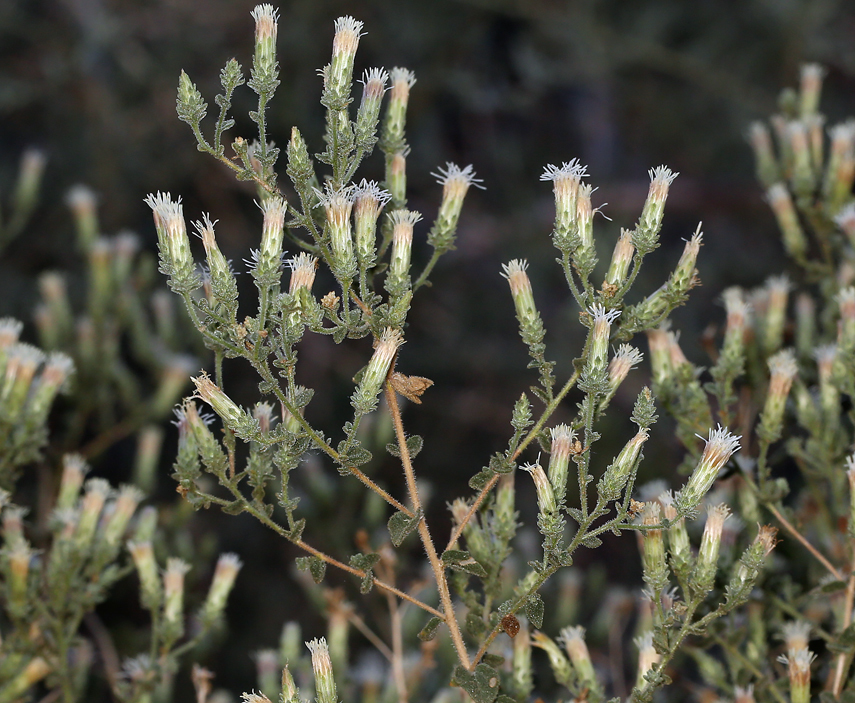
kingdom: Plantae
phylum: Tracheophyta
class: Magnoliopsida
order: Asterales
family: Asteraceae
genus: Brickellia
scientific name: Brickellia microphylla
